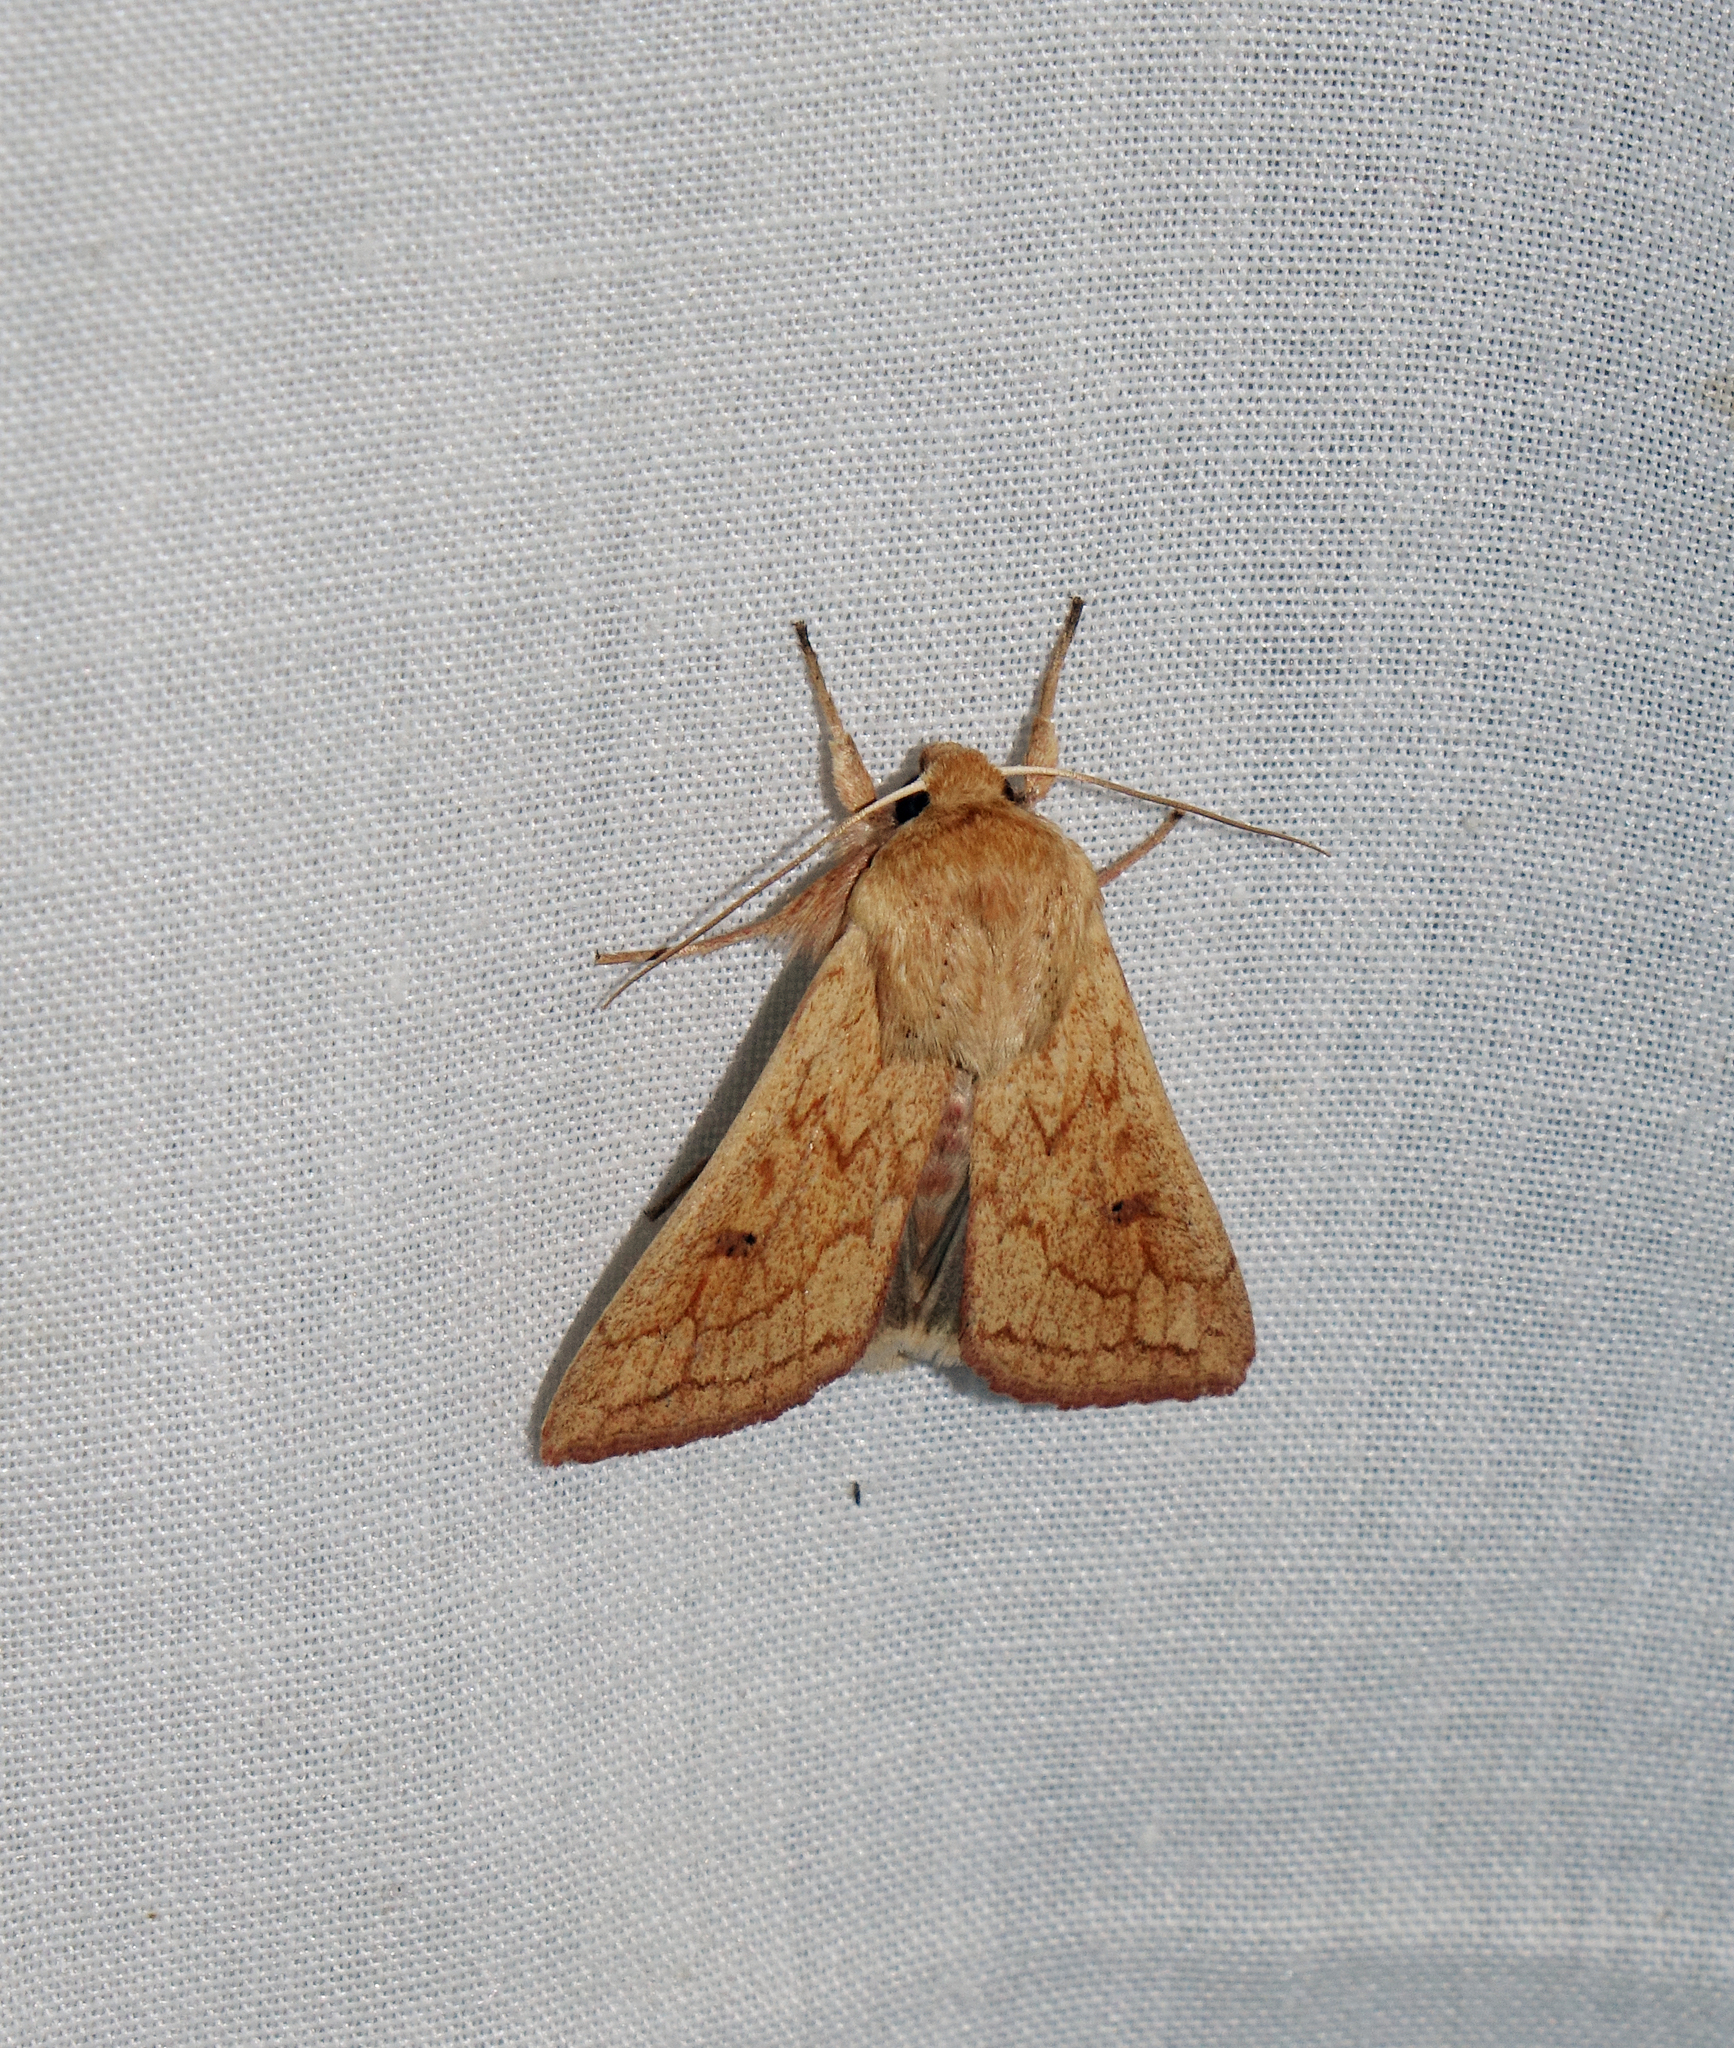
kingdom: Animalia
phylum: Arthropoda
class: Insecta
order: Lepidoptera
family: Noctuidae
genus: Mythimna
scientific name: Mythimna vitellina
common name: Delicate
